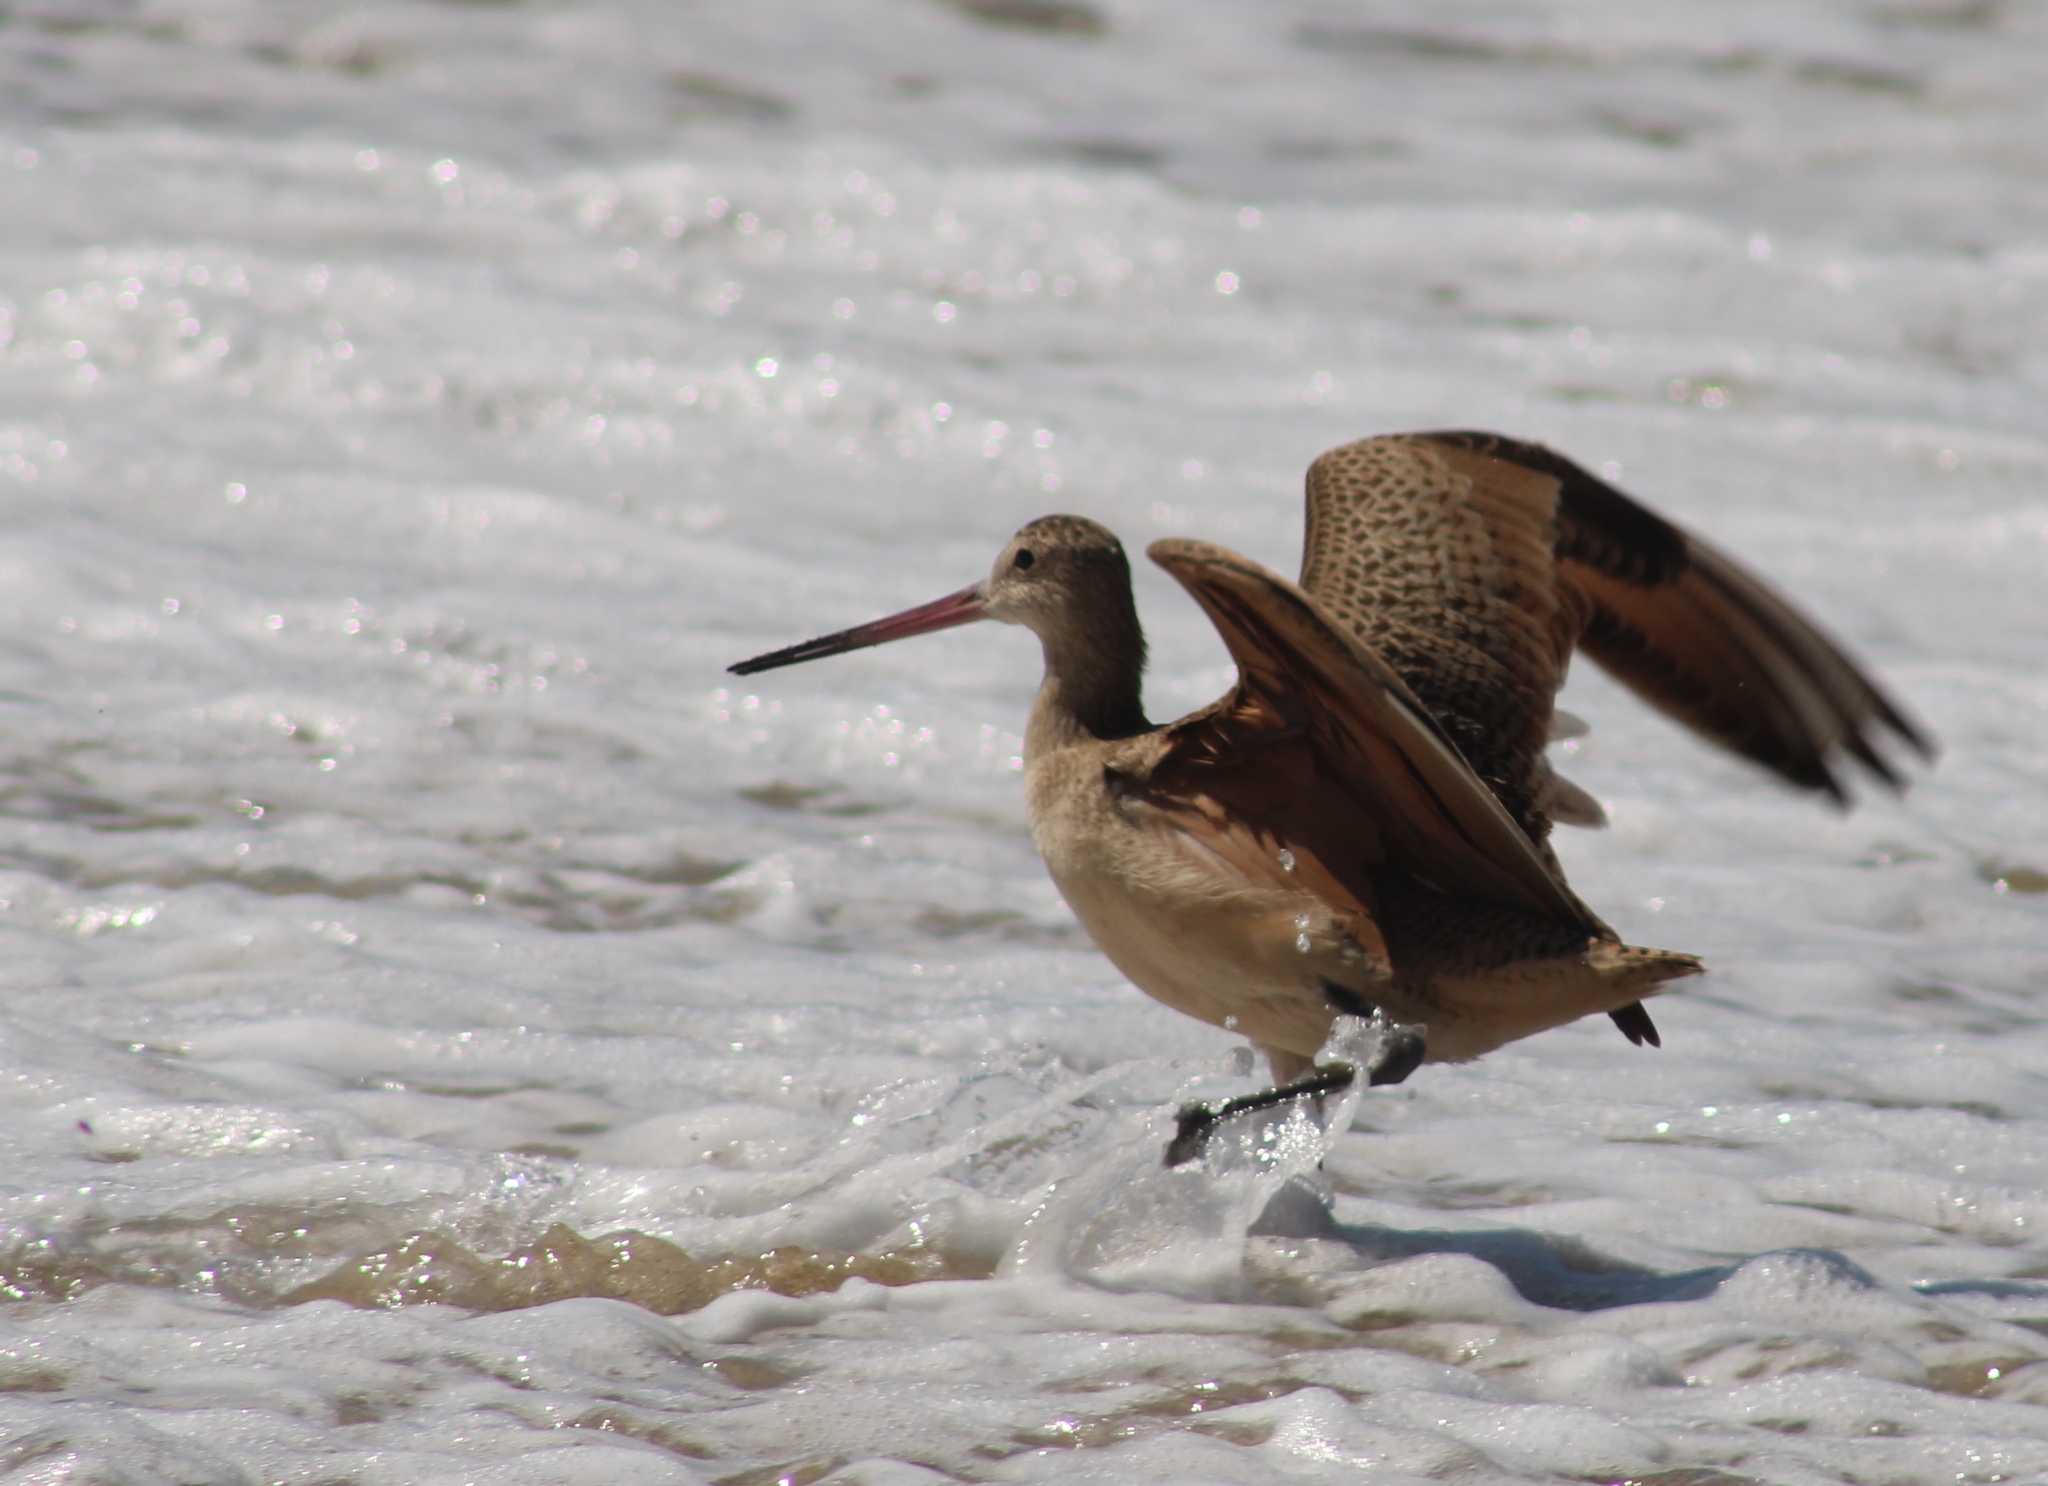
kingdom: Animalia
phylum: Chordata
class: Aves
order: Charadriiformes
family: Scolopacidae
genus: Limosa
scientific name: Limosa fedoa
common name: Marbled godwit
